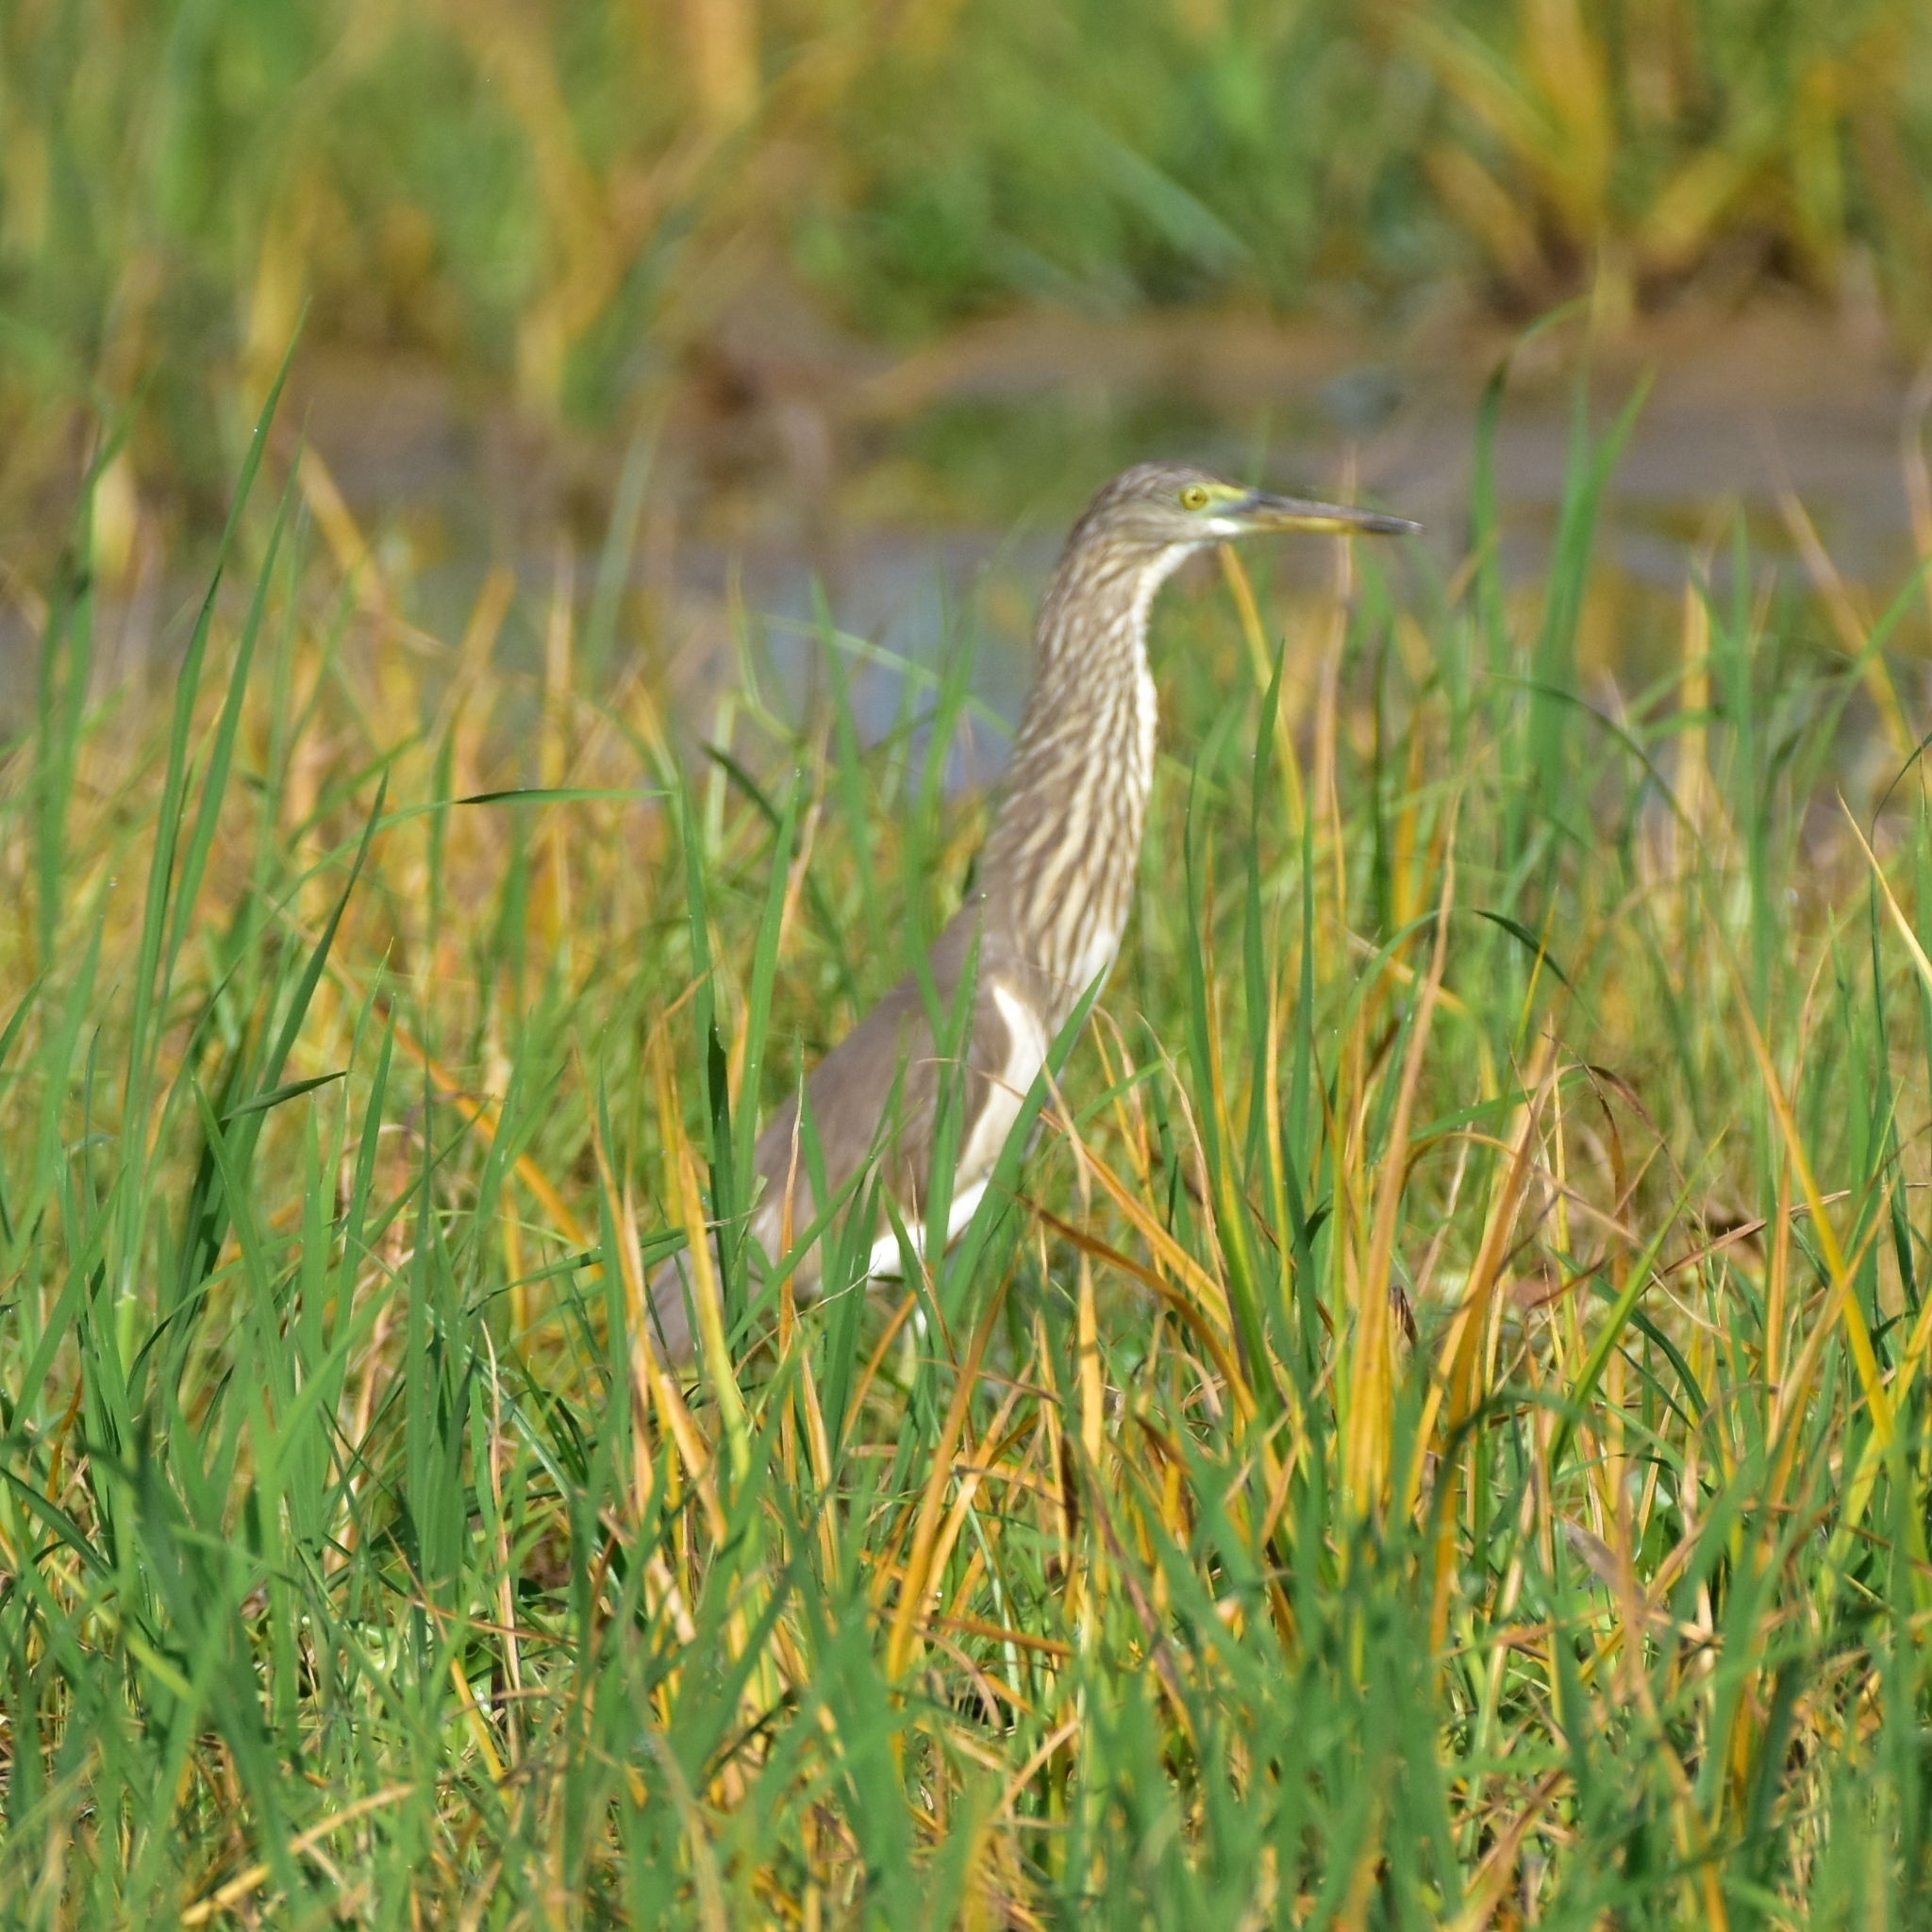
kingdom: Animalia
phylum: Chordata
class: Aves
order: Pelecaniformes
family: Ardeidae
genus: Ardeola
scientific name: Ardeola grayii
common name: Indian pond heron
